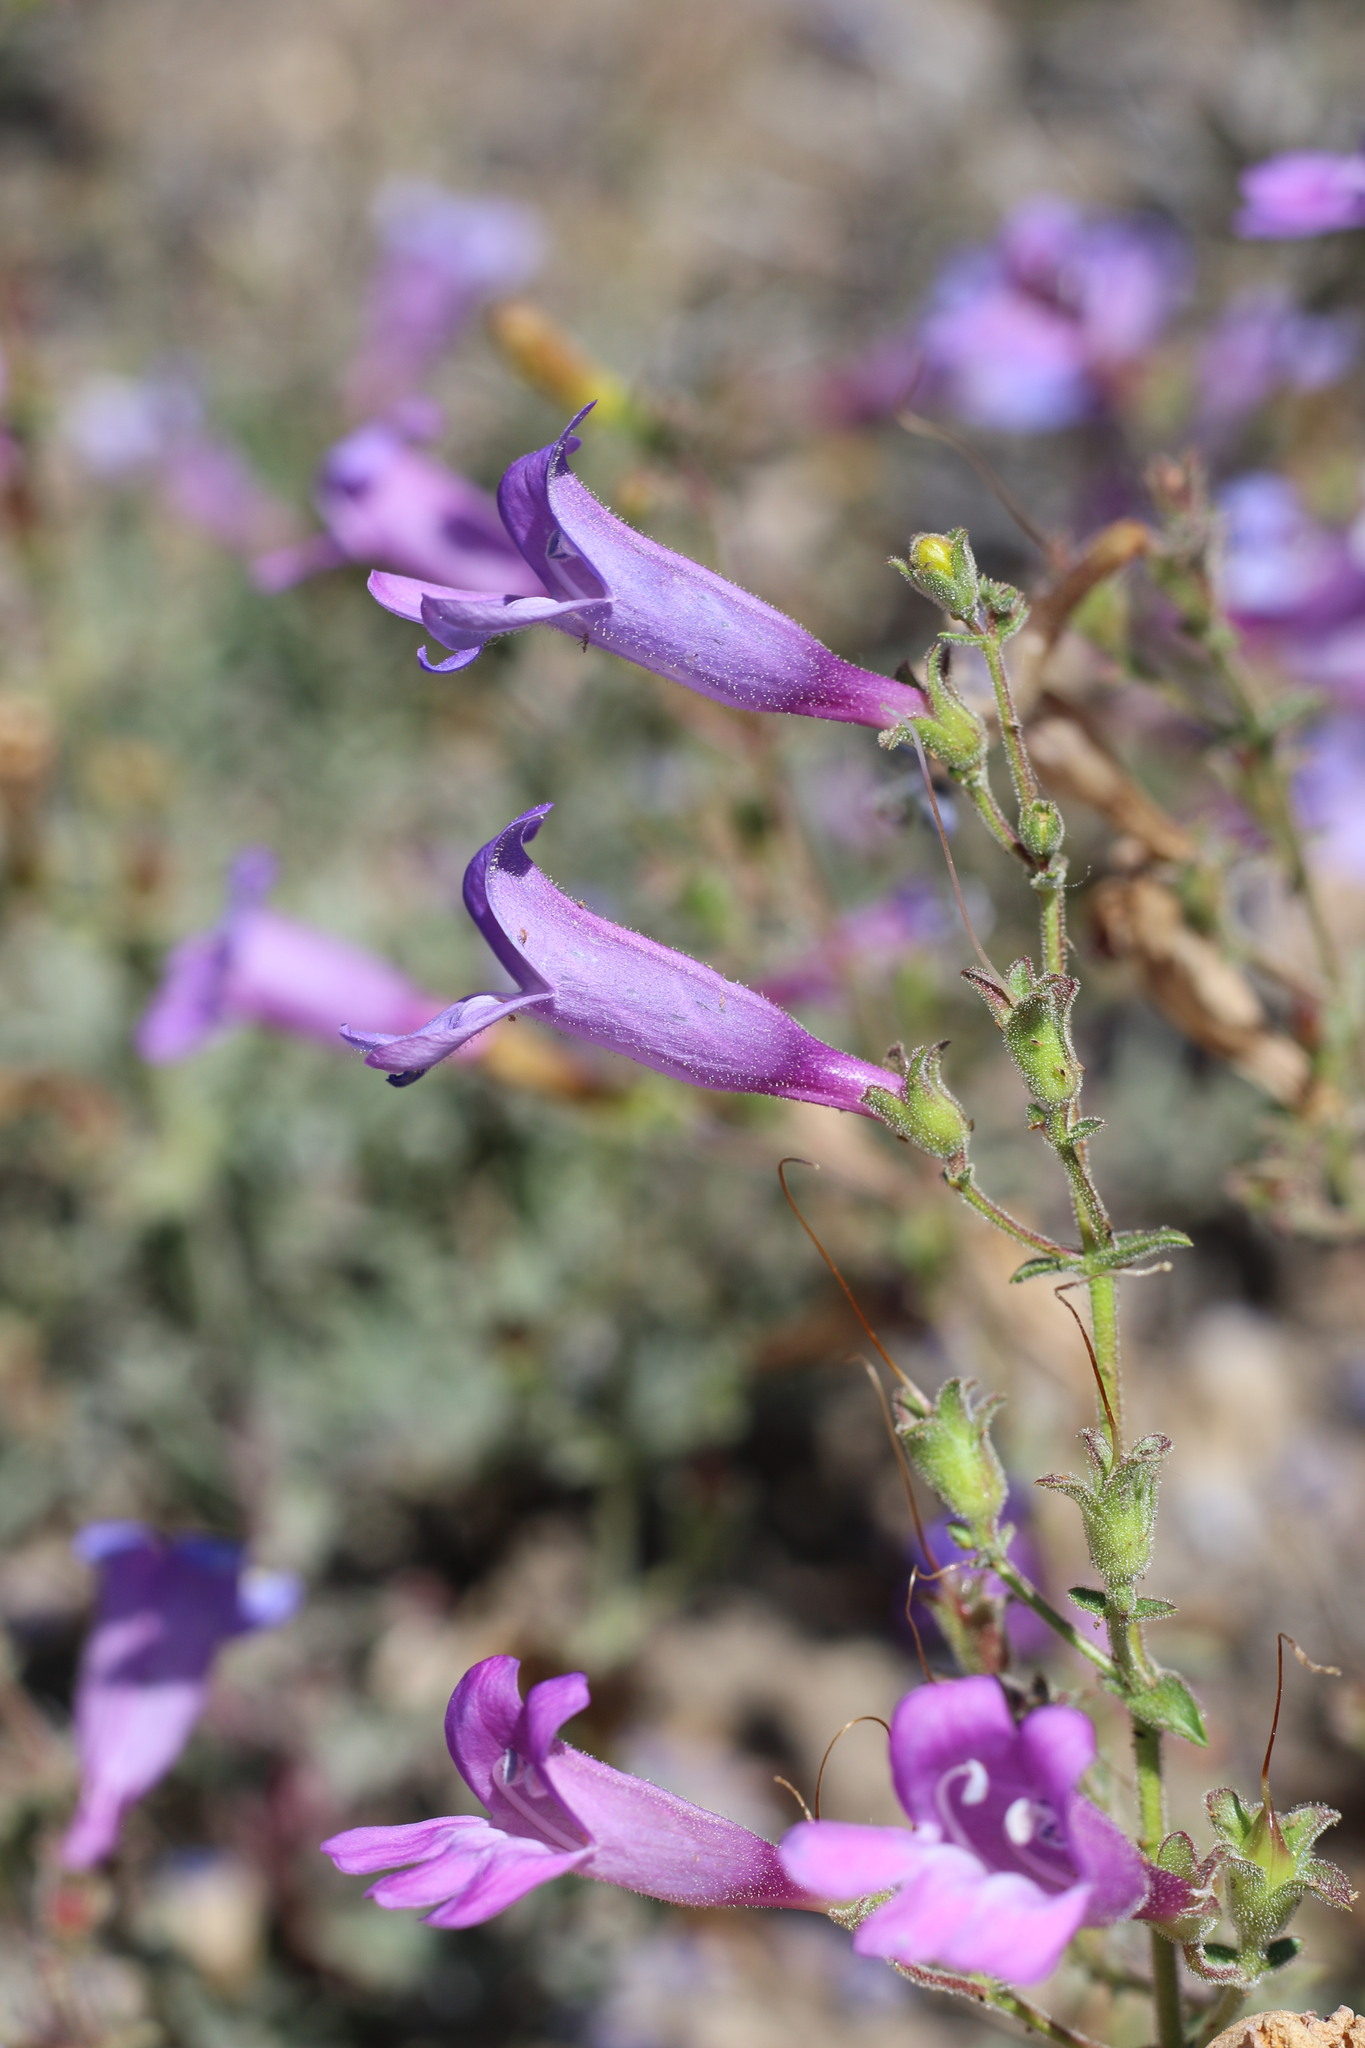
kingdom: Plantae
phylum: Tracheophyta
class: Magnoliopsida
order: Lamiales
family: Plantaginaceae
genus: Penstemon
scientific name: Penstemon laetus
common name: Gay penstemon
